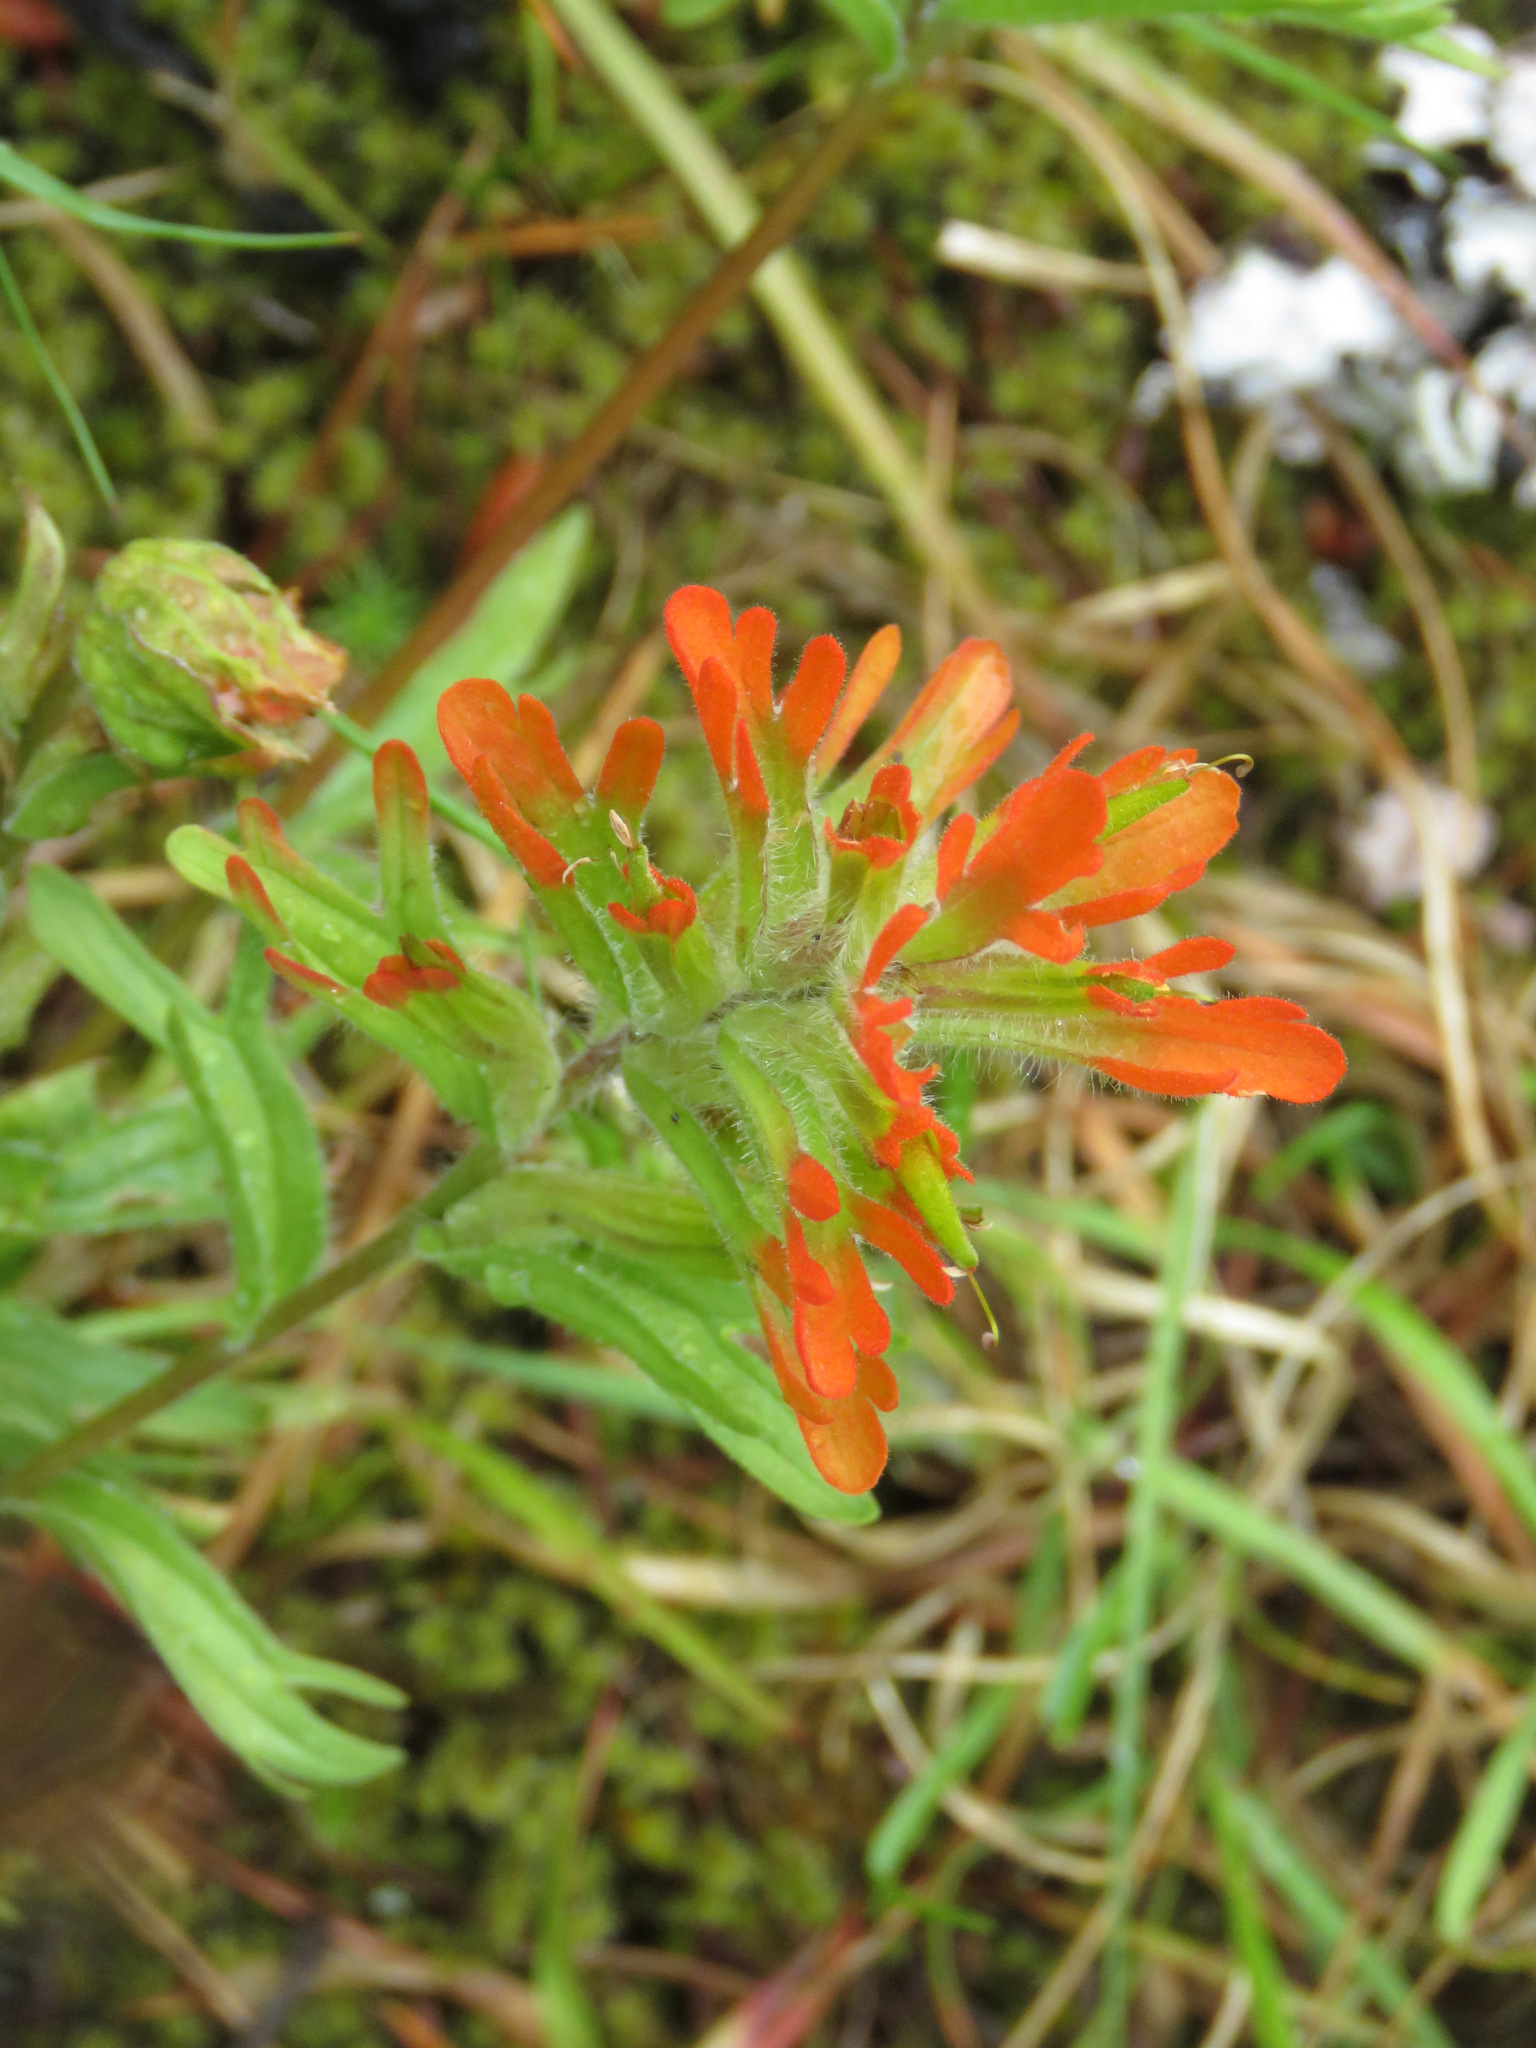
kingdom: Plantae
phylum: Tracheophyta
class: Magnoliopsida
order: Lamiales
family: Orobanchaceae
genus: Castilleja
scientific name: Castilleja hispida
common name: Bristly paintbrush
